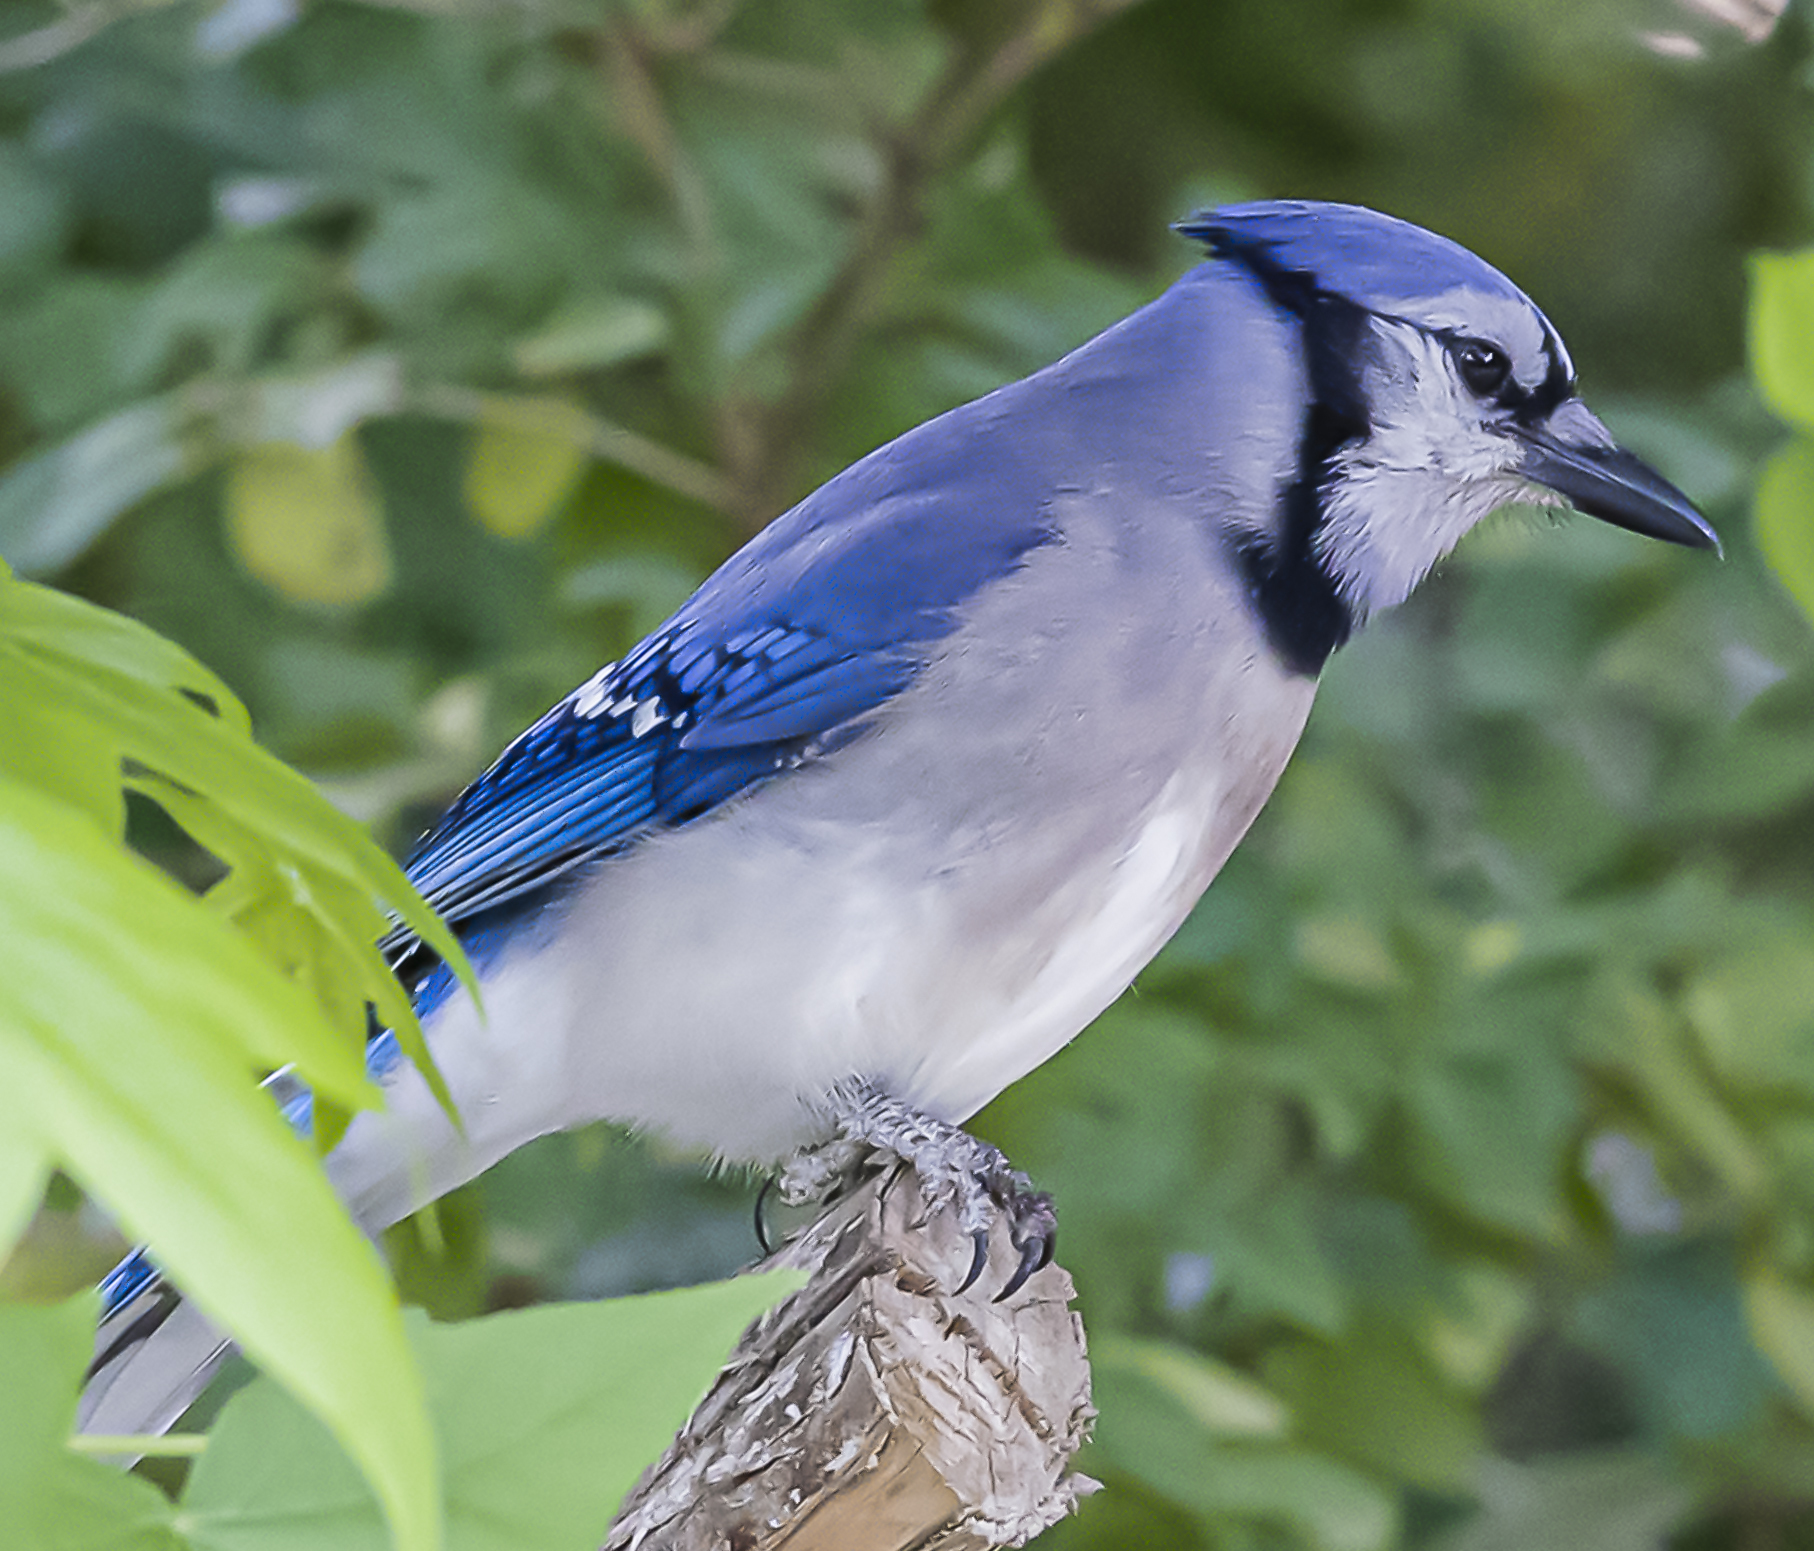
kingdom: Animalia
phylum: Chordata
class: Aves
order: Passeriformes
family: Corvidae
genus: Cyanocitta
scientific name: Cyanocitta cristata
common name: Blue jay
